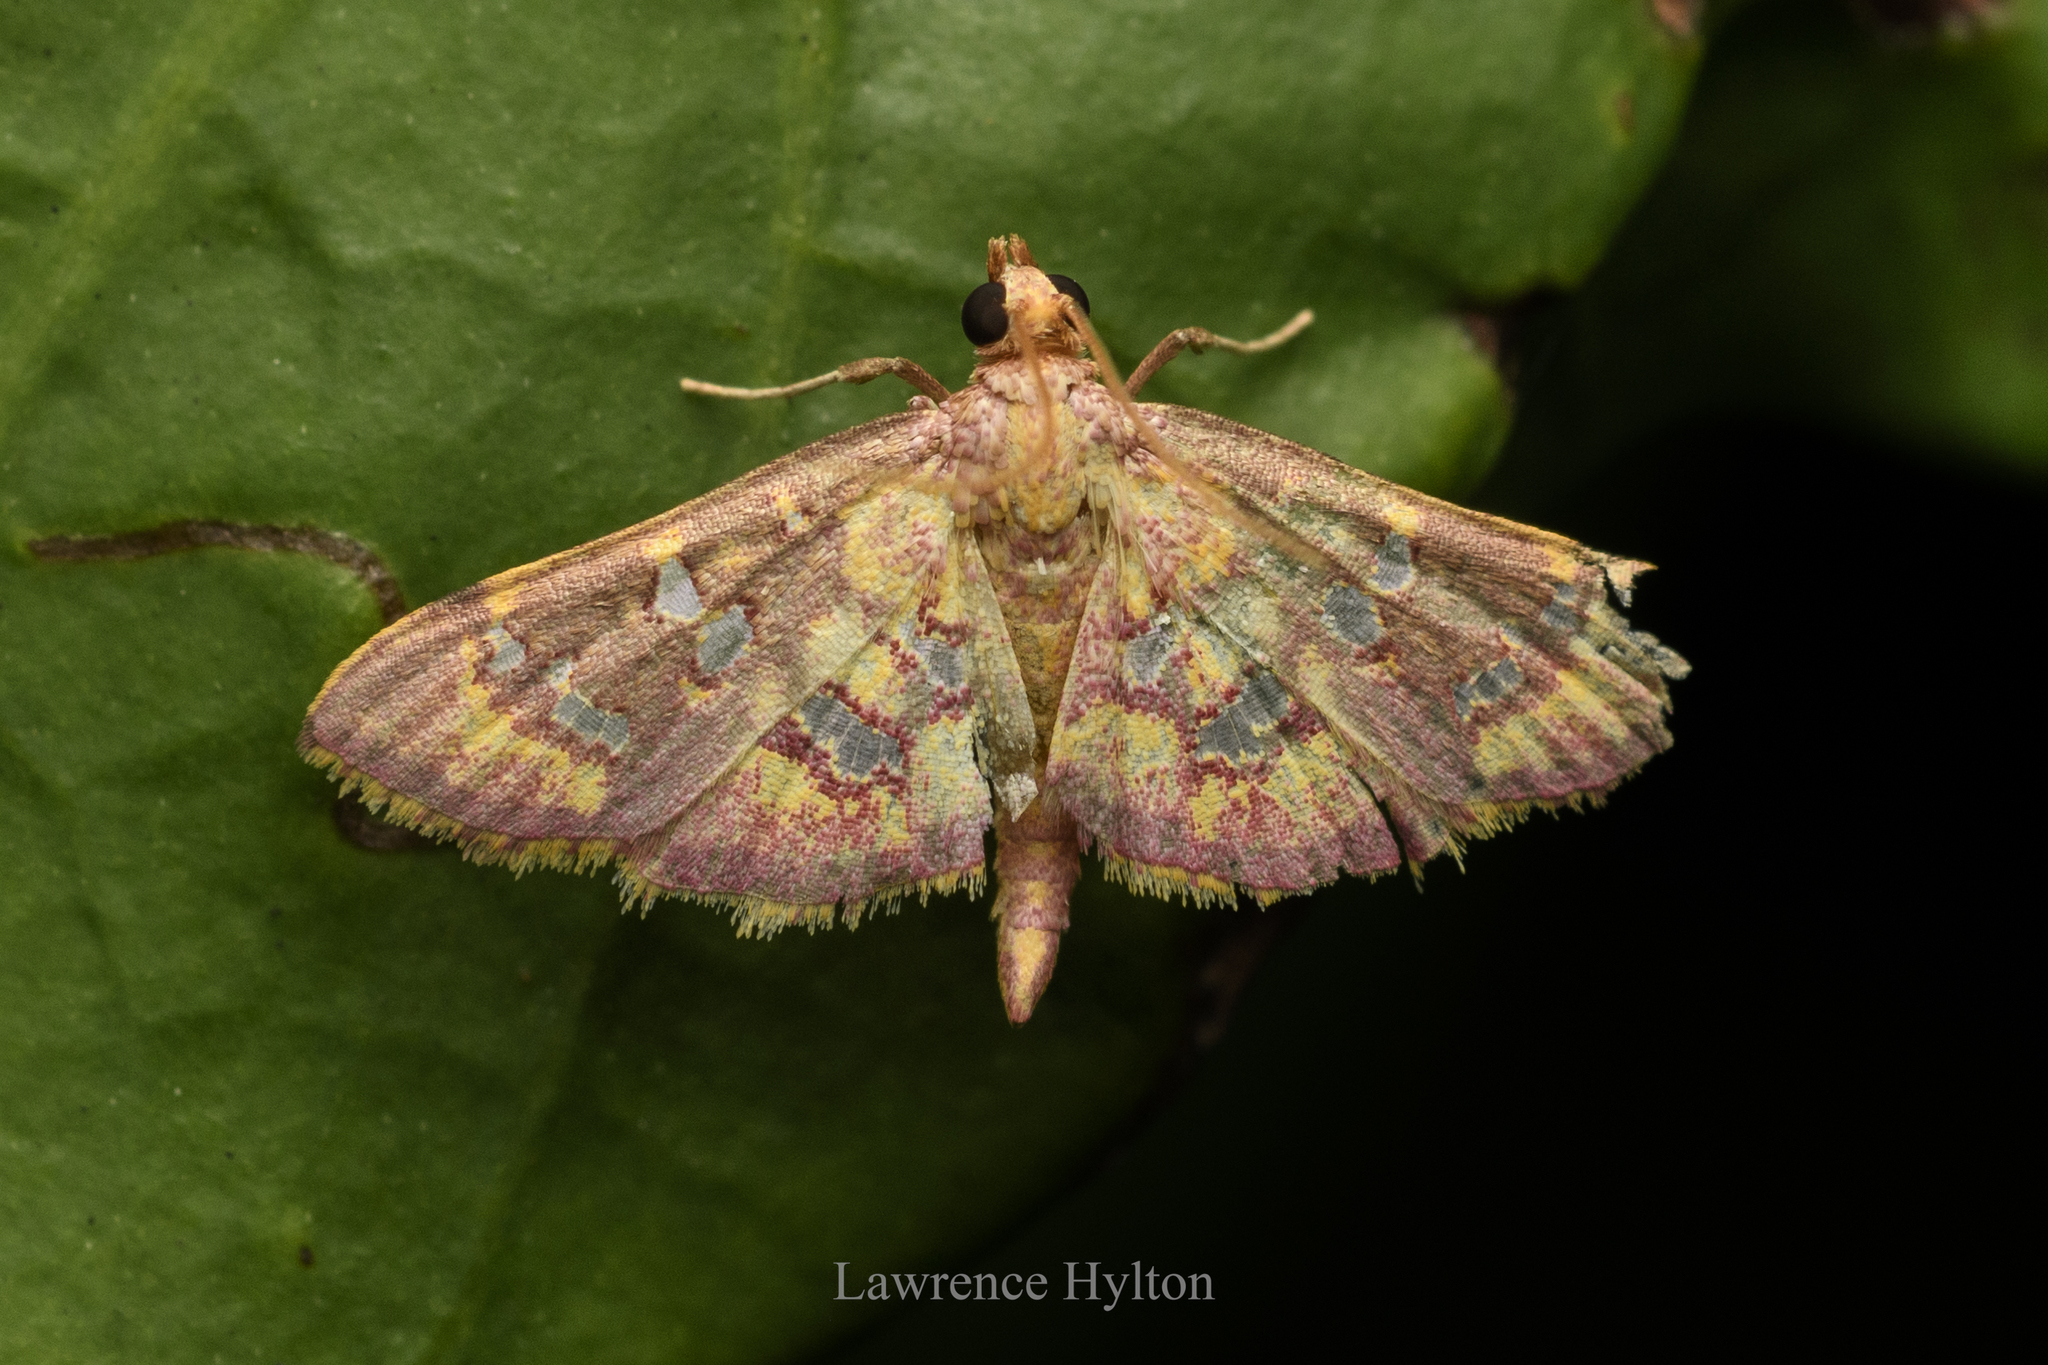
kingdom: Animalia
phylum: Arthropoda
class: Insecta
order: Lepidoptera
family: Crambidae
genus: Ischnurges
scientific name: Ischnurges gratiosalis
